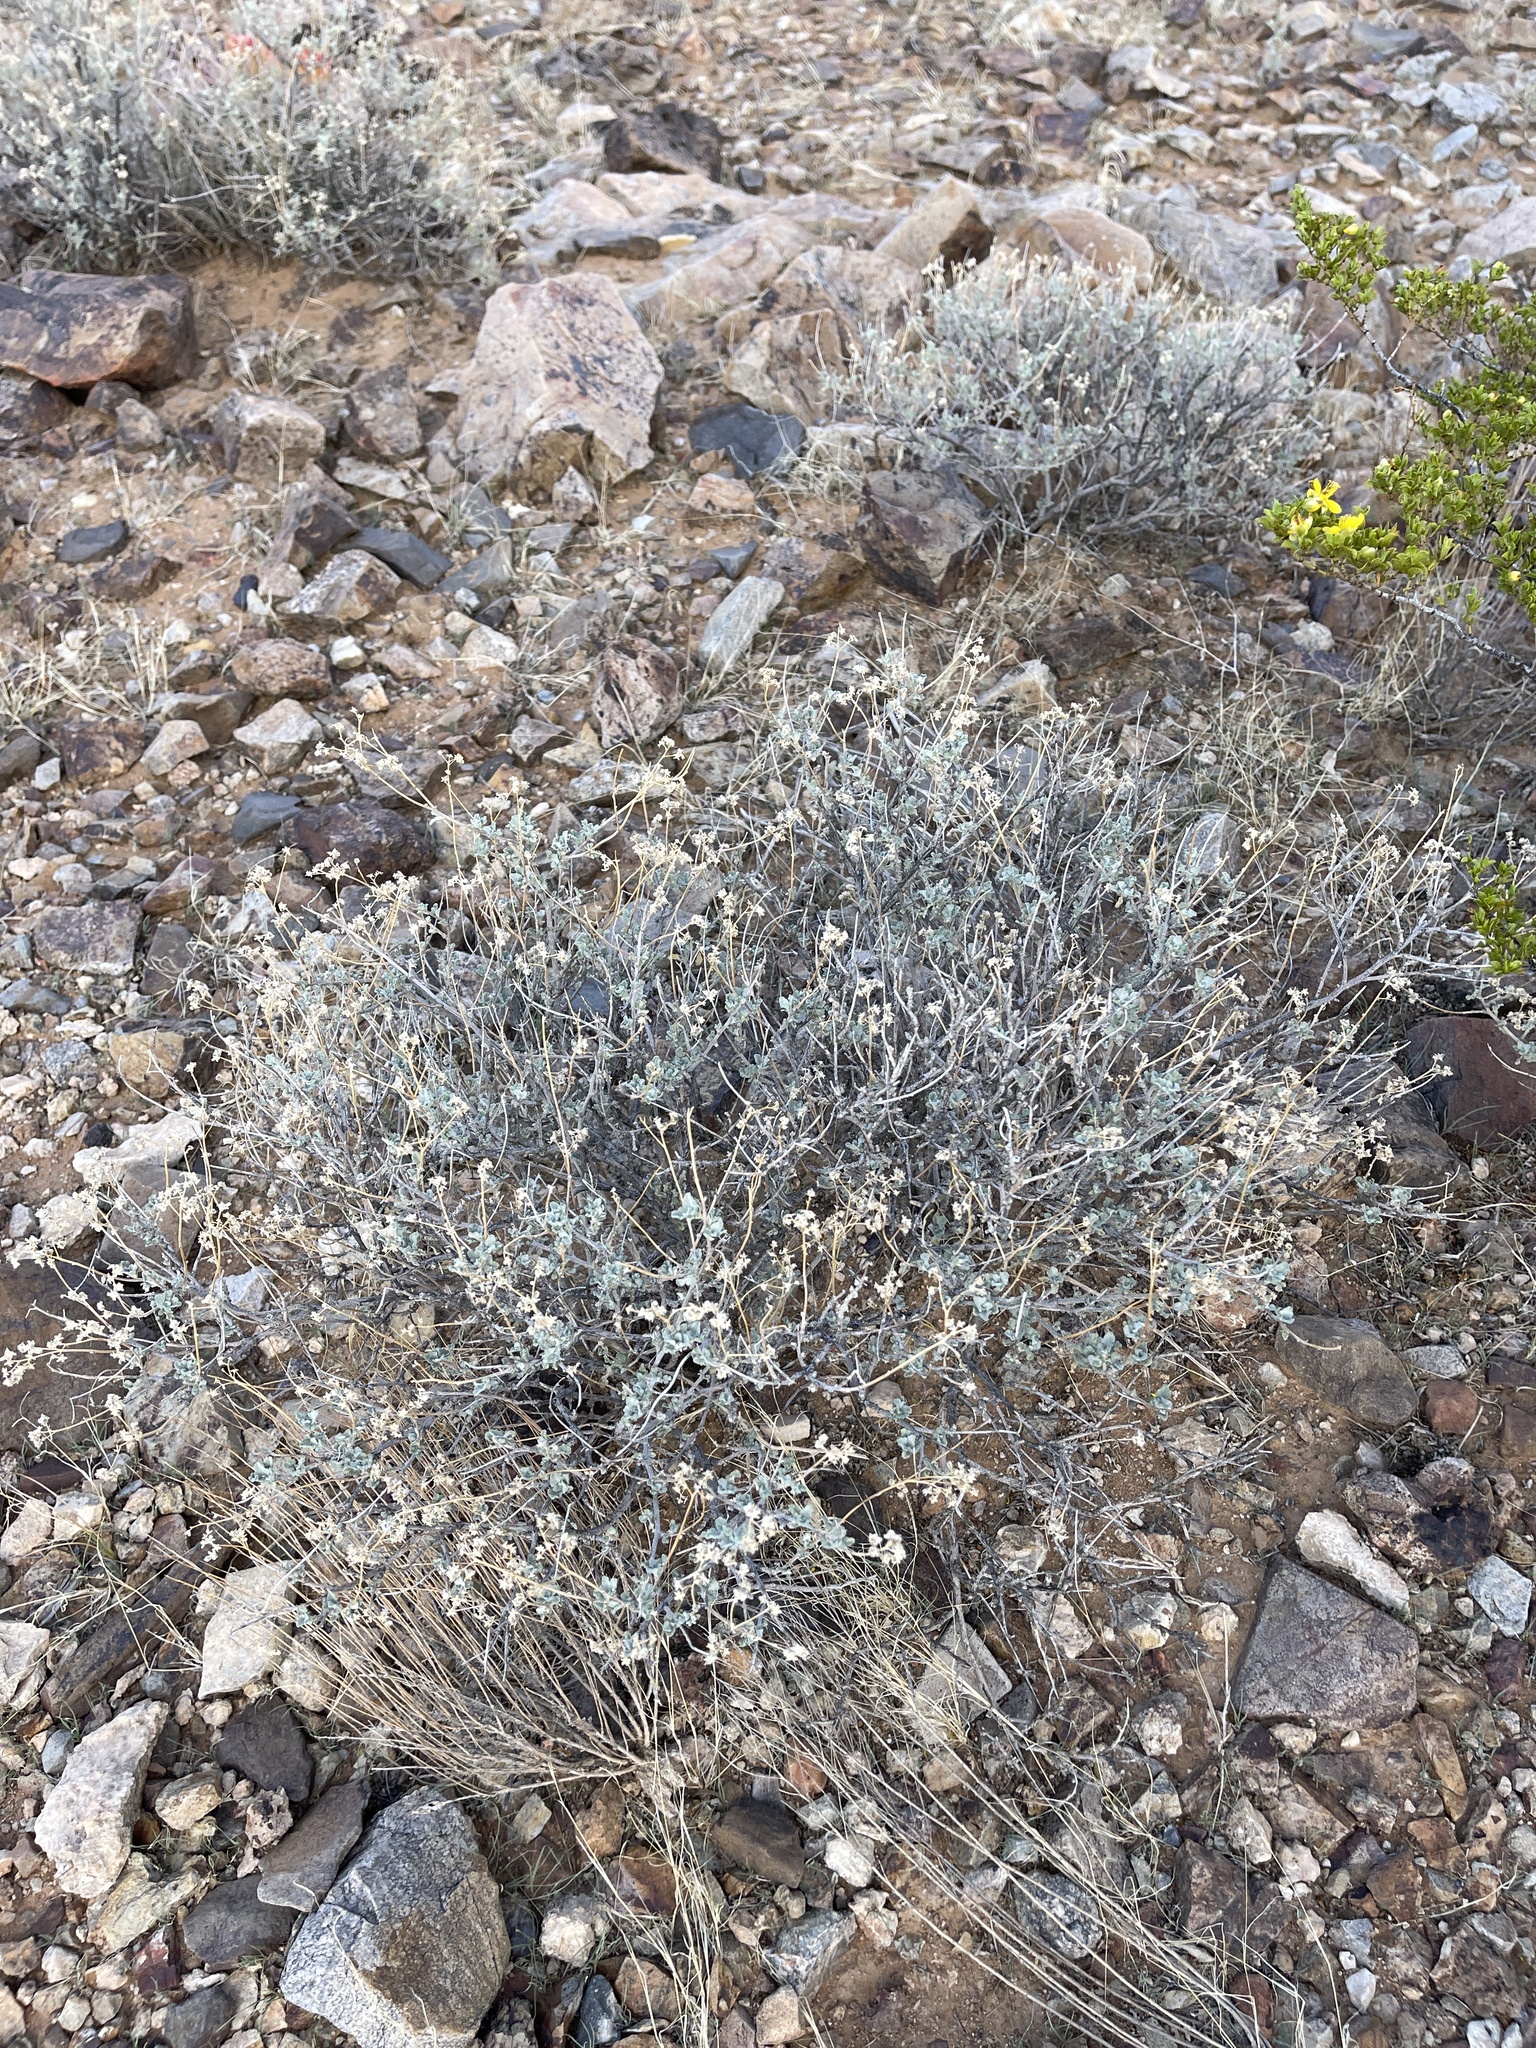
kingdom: Plantae
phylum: Tracheophyta
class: Magnoliopsida
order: Asterales
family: Asteraceae
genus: Parthenium
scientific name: Parthenium incanum
